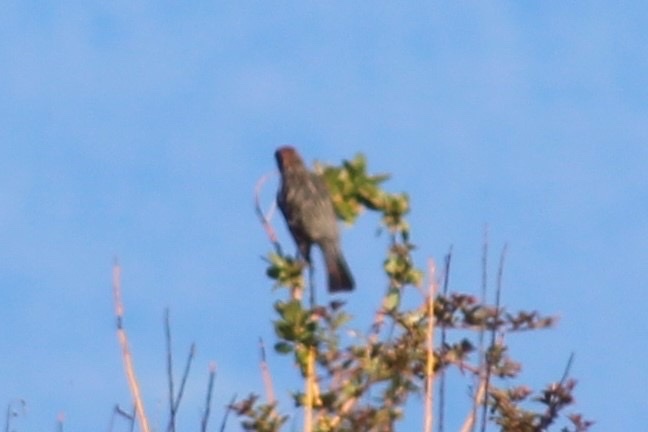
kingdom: Animalia
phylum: Chordata
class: Aves
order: Passeriformes
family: Cotingidae
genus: Phytotoma
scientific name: Phytotoma rara
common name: Rufous-tailed plantcutter
